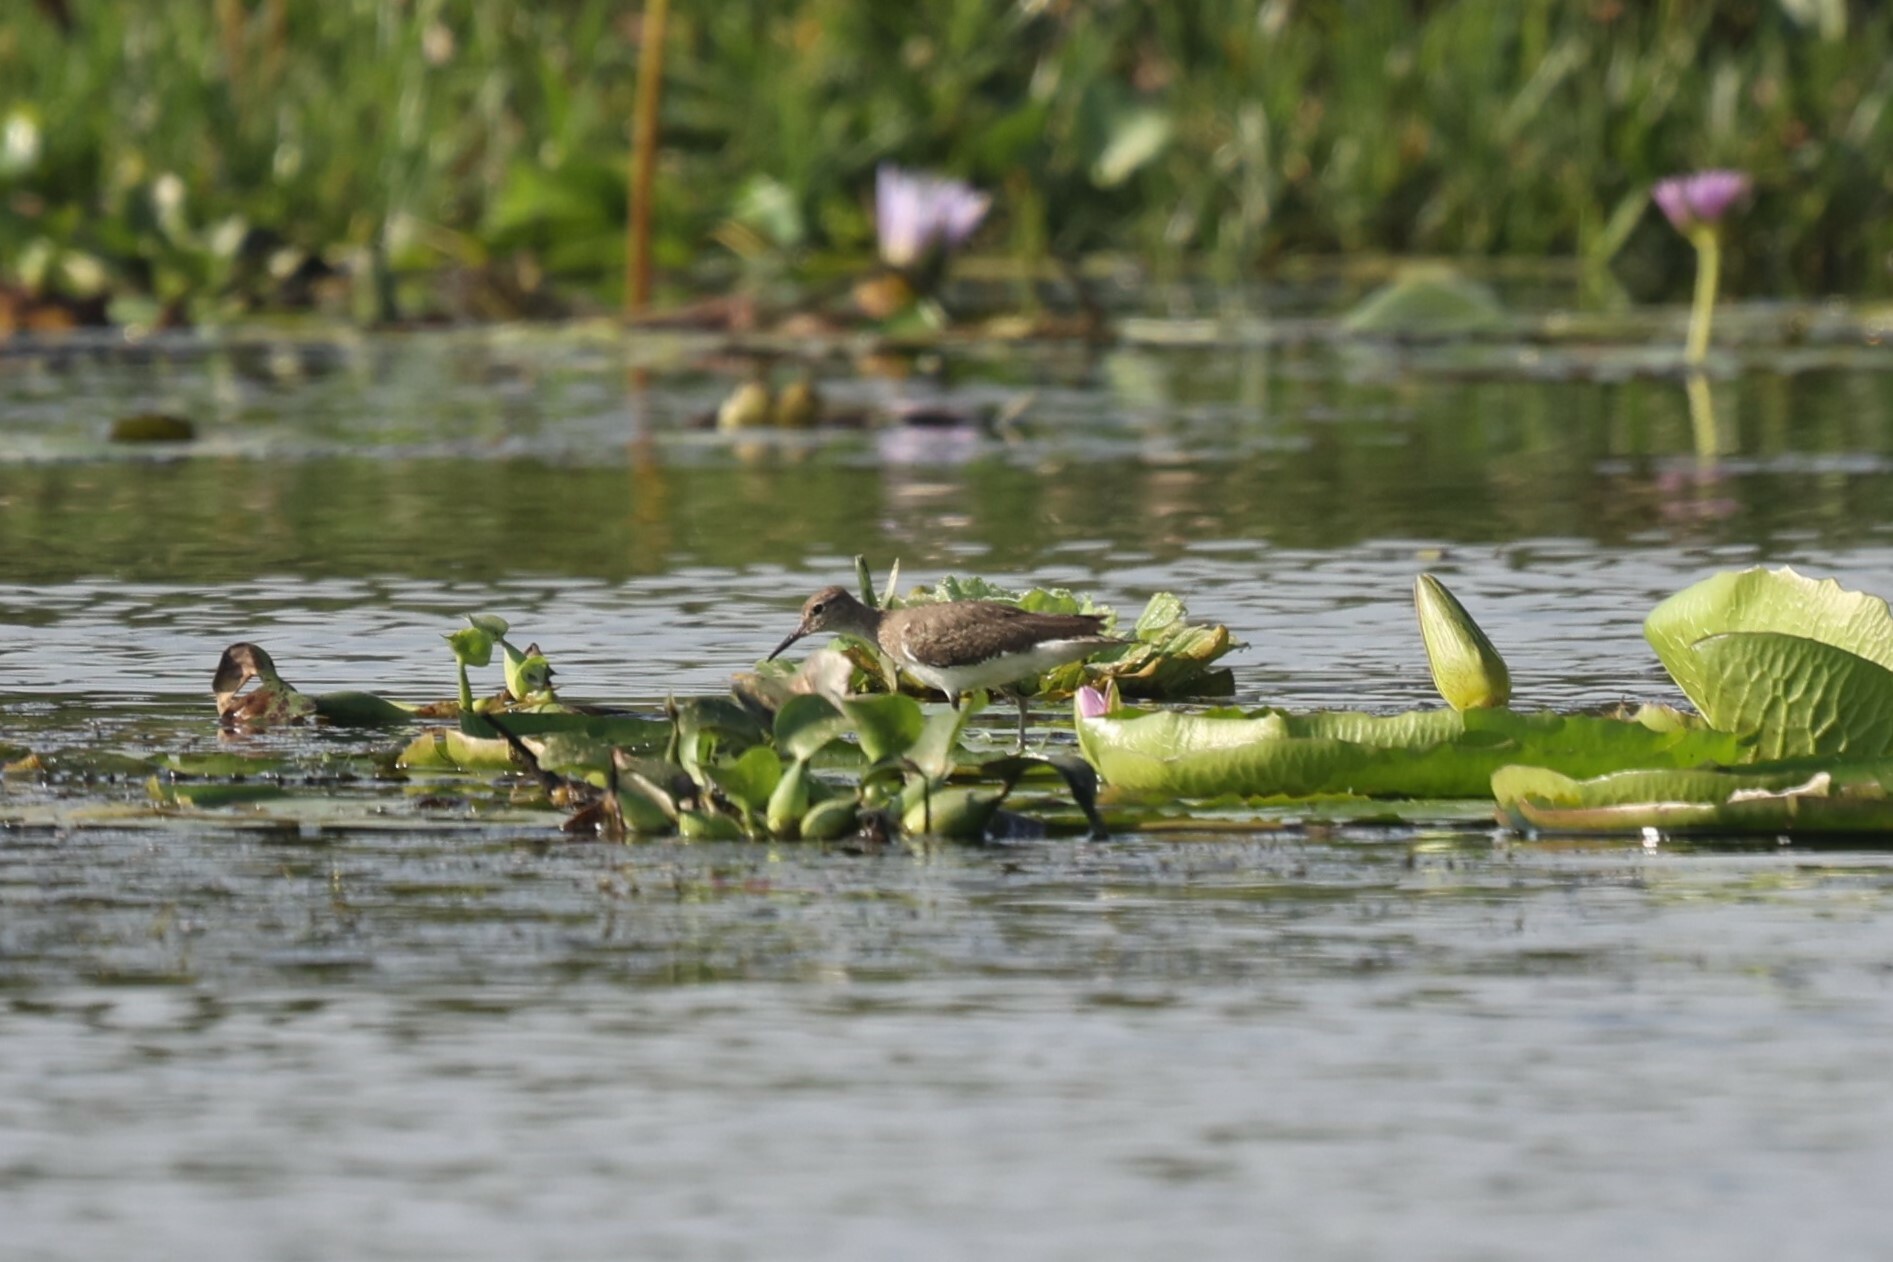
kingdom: Animalia
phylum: Chordata
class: Aves
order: Charadriiformes
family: Scolopacidae
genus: Actitis
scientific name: Actitis hypoleucos
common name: Common sandpiper
